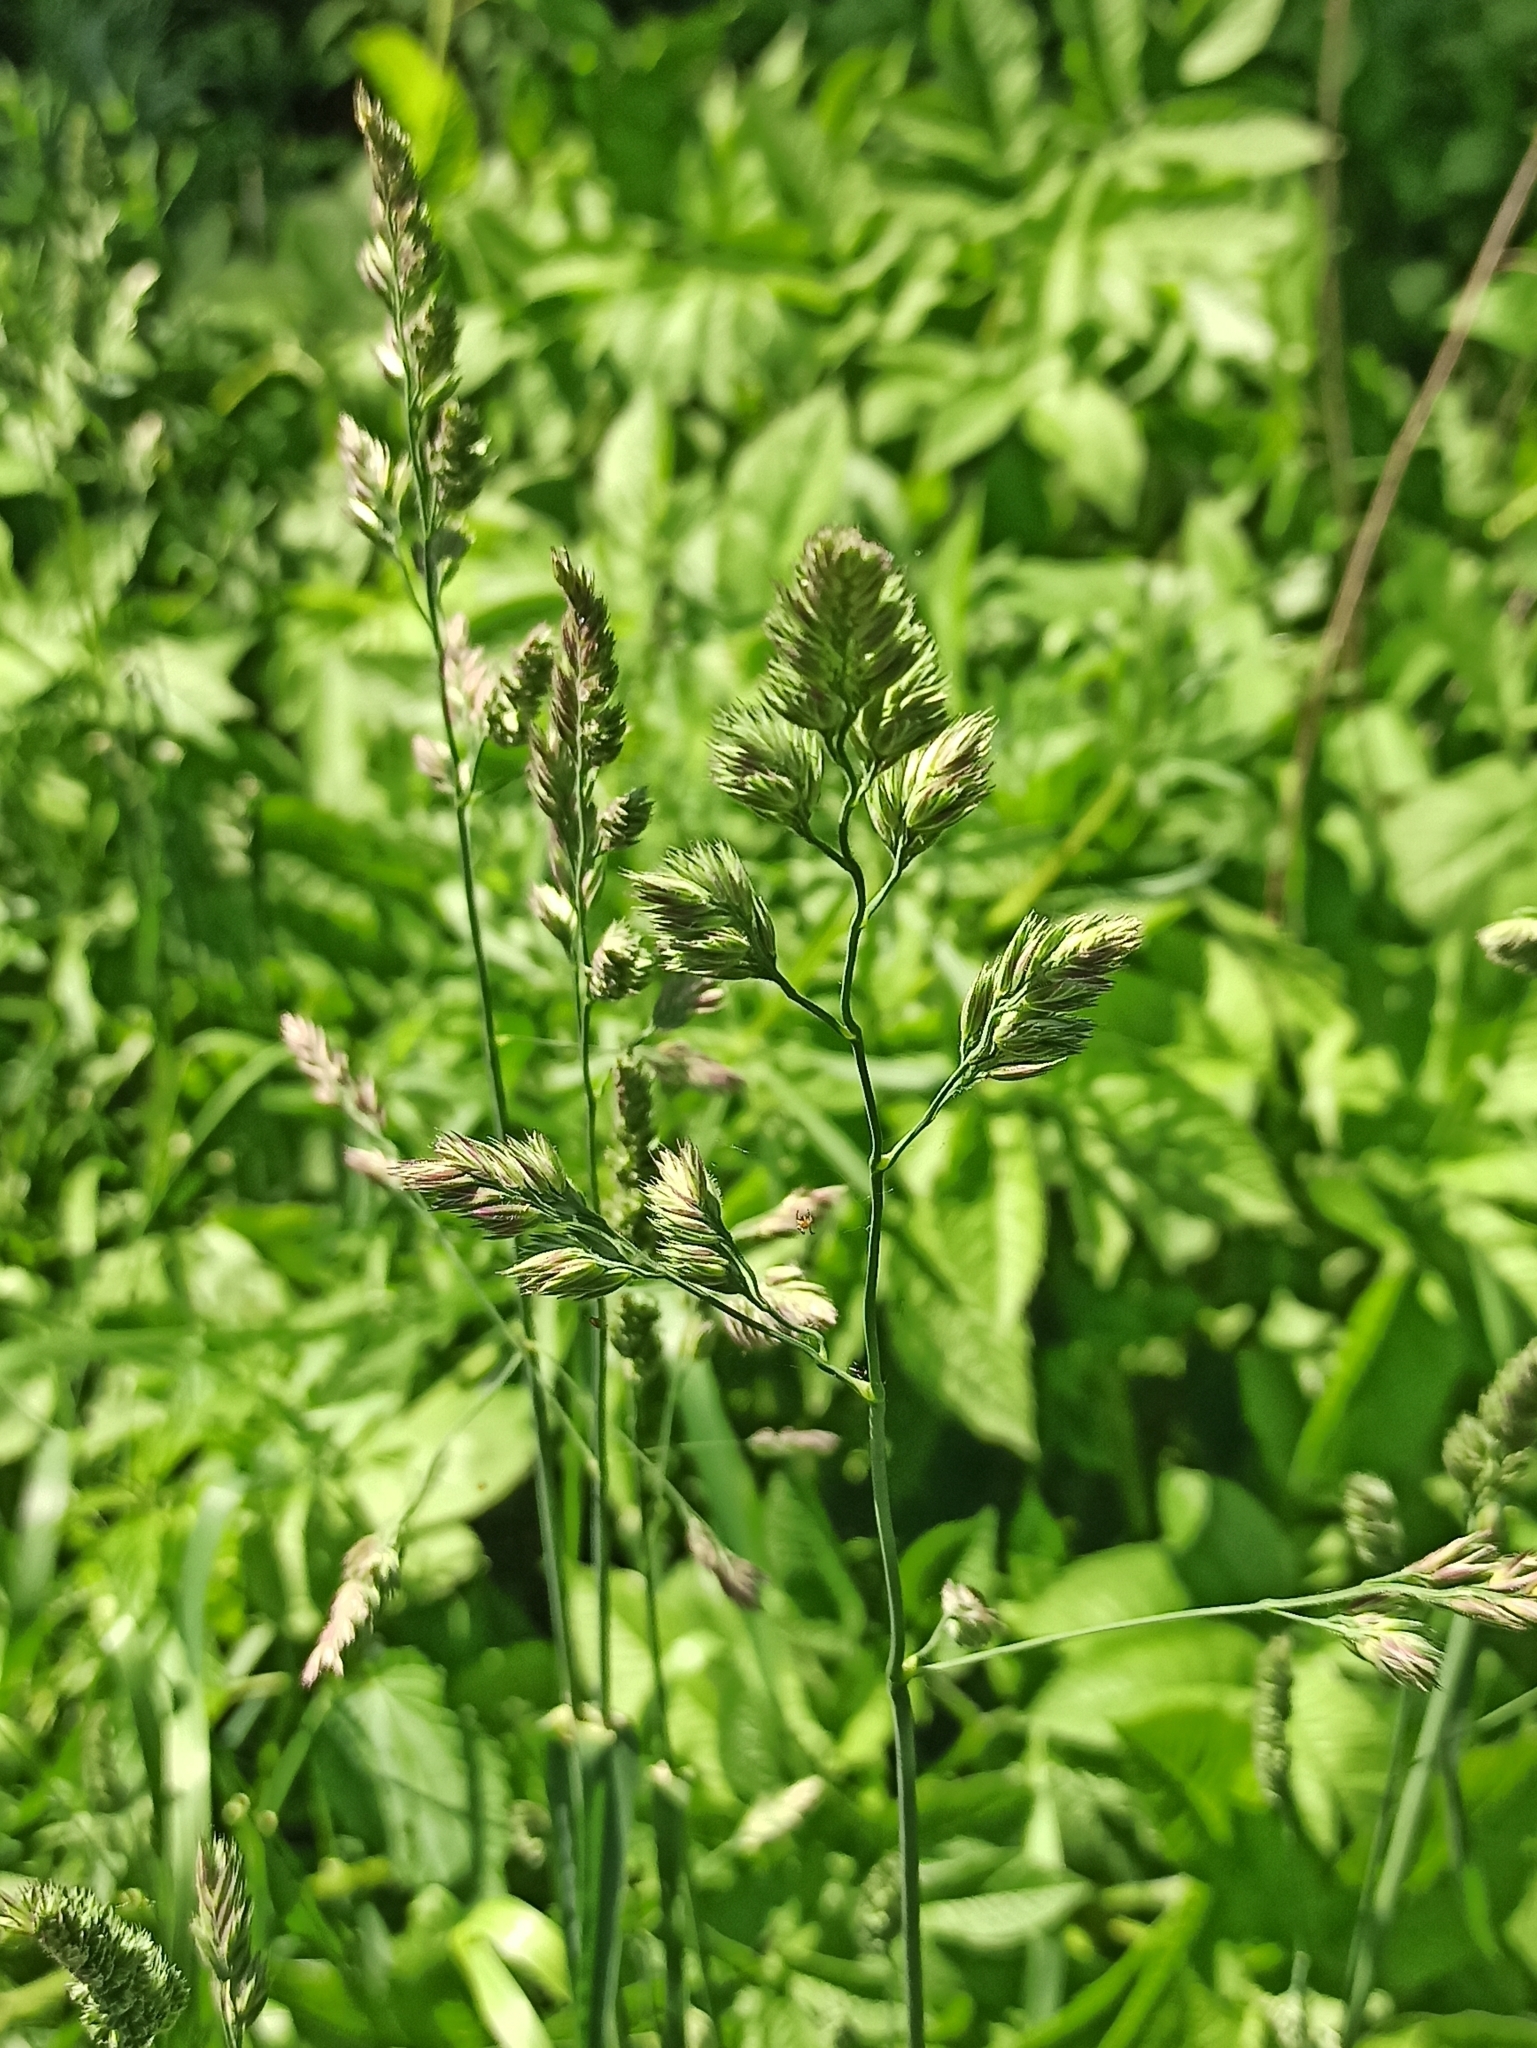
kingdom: Plantae
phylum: Tracheophyta
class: Liliopsida
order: Poales
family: Poaceae
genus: Dactylis
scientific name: Dactylis glomerata
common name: Orchardgrass
